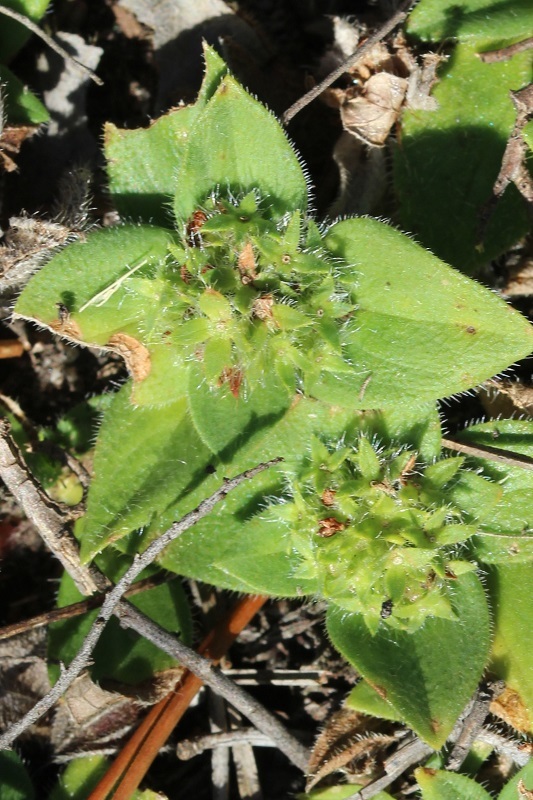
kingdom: Plantae
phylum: Tracheophyta
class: Magnoliopsida
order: Gentianales
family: Rubiaceae
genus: Richardia
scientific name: Richardia brasiliensis
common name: Tropical mexican clover
